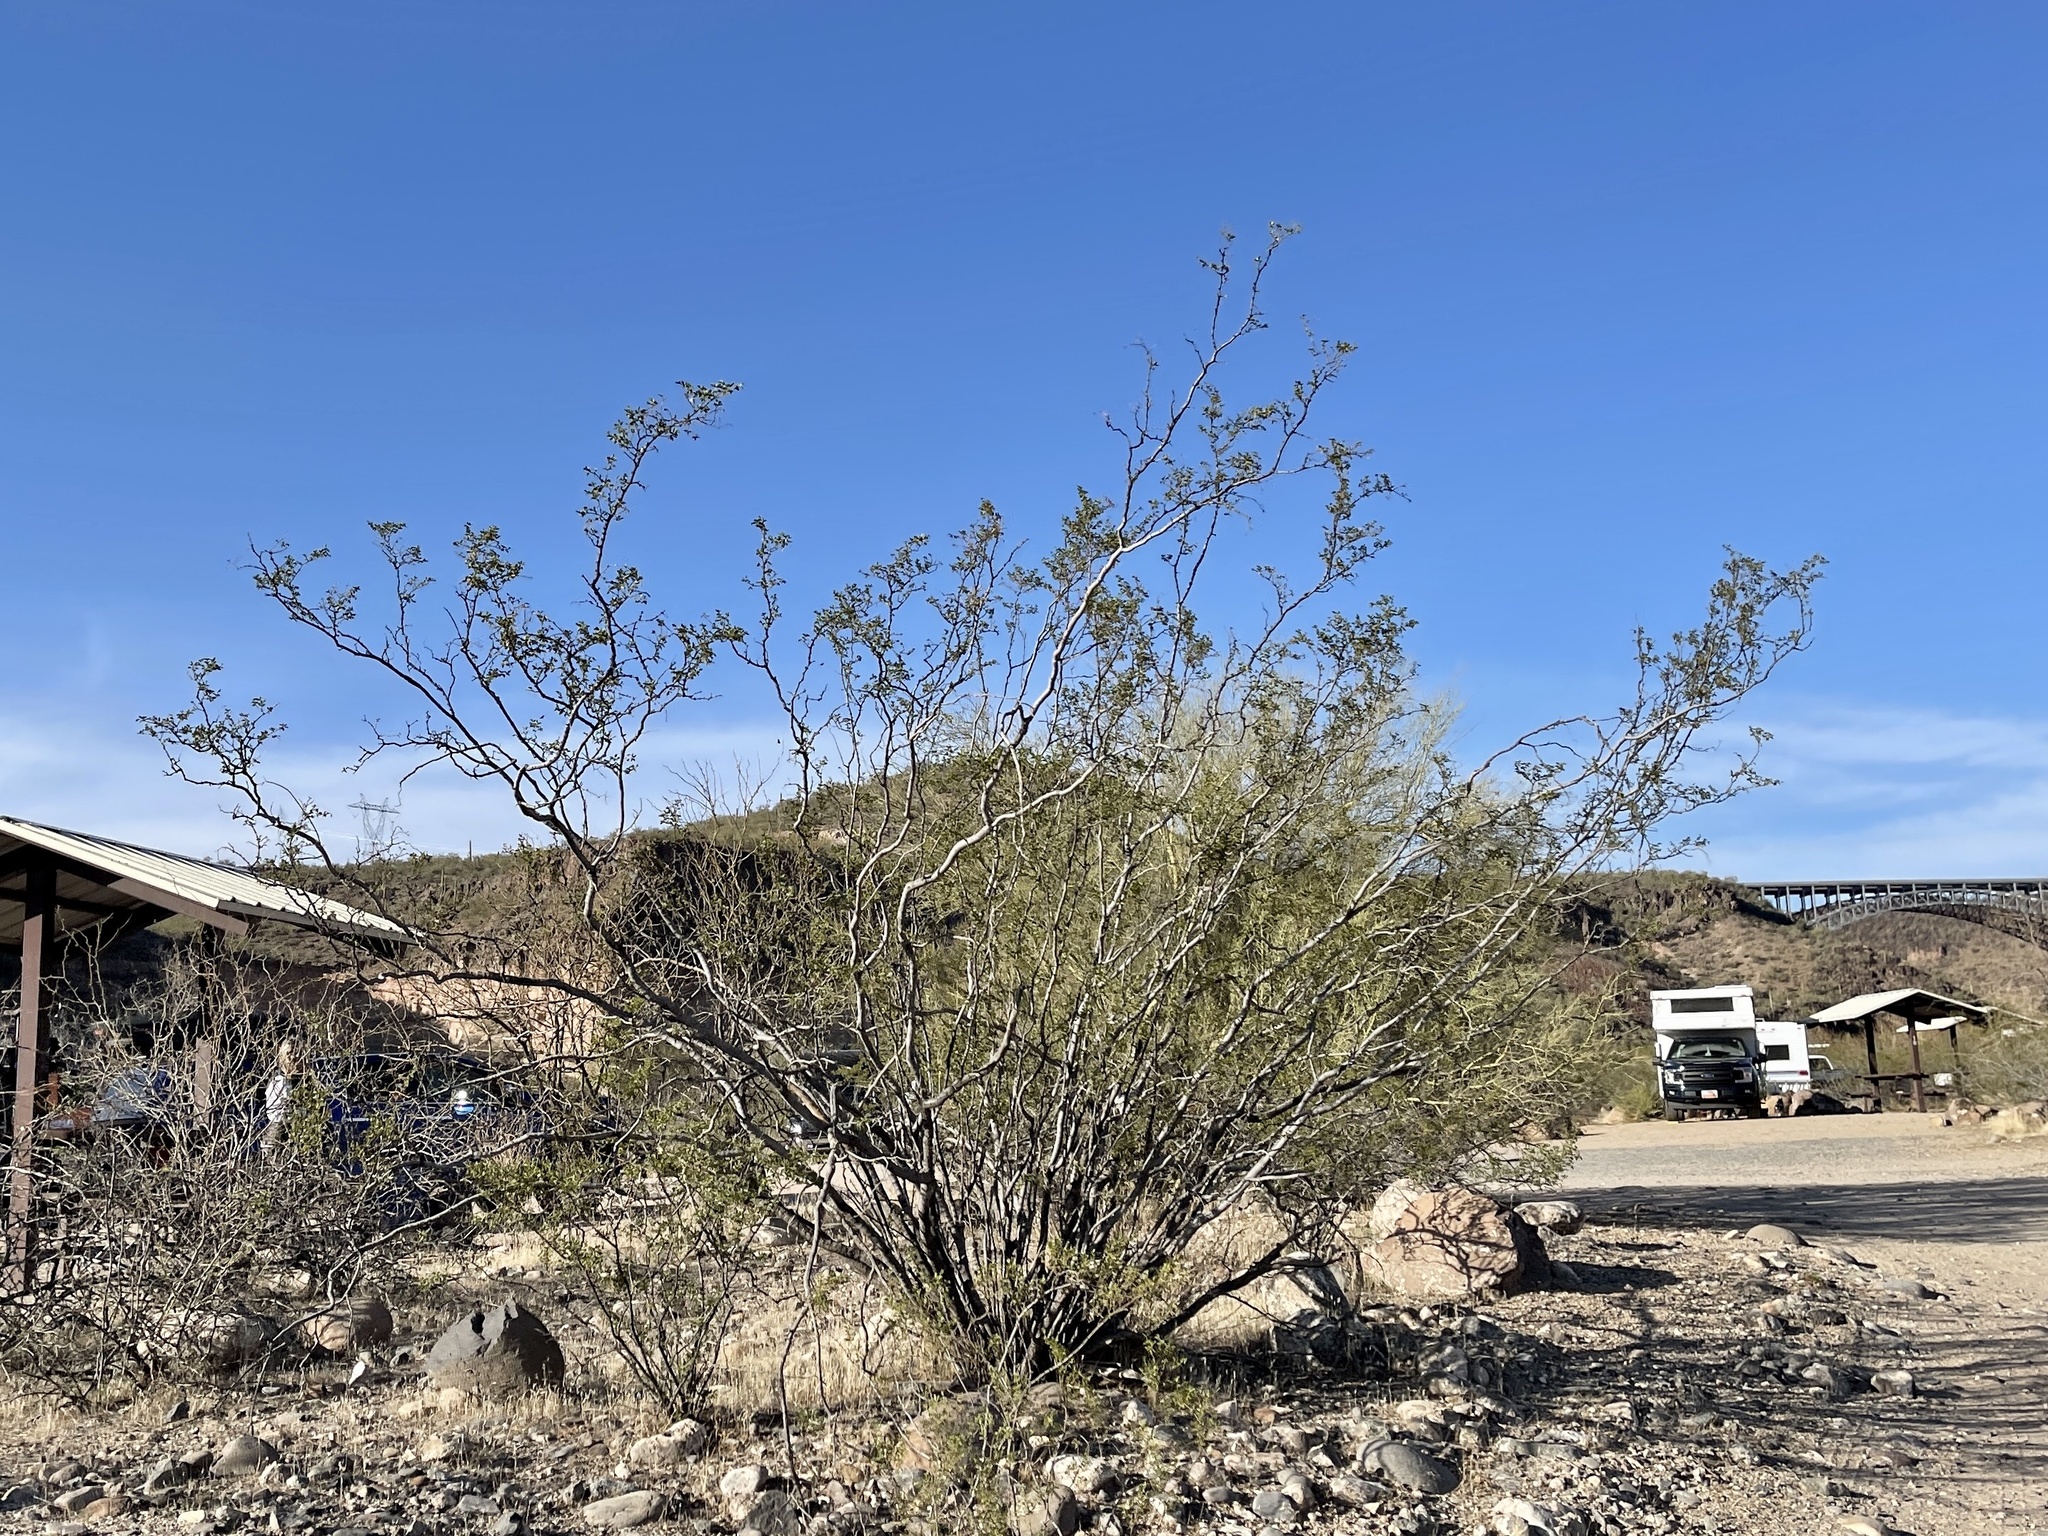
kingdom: Plantae
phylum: Tracheophyta
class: Magnoliopsida
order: Zygophyllales
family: Zygophyllaceae
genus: Larrea
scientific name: Larrea tridentata
